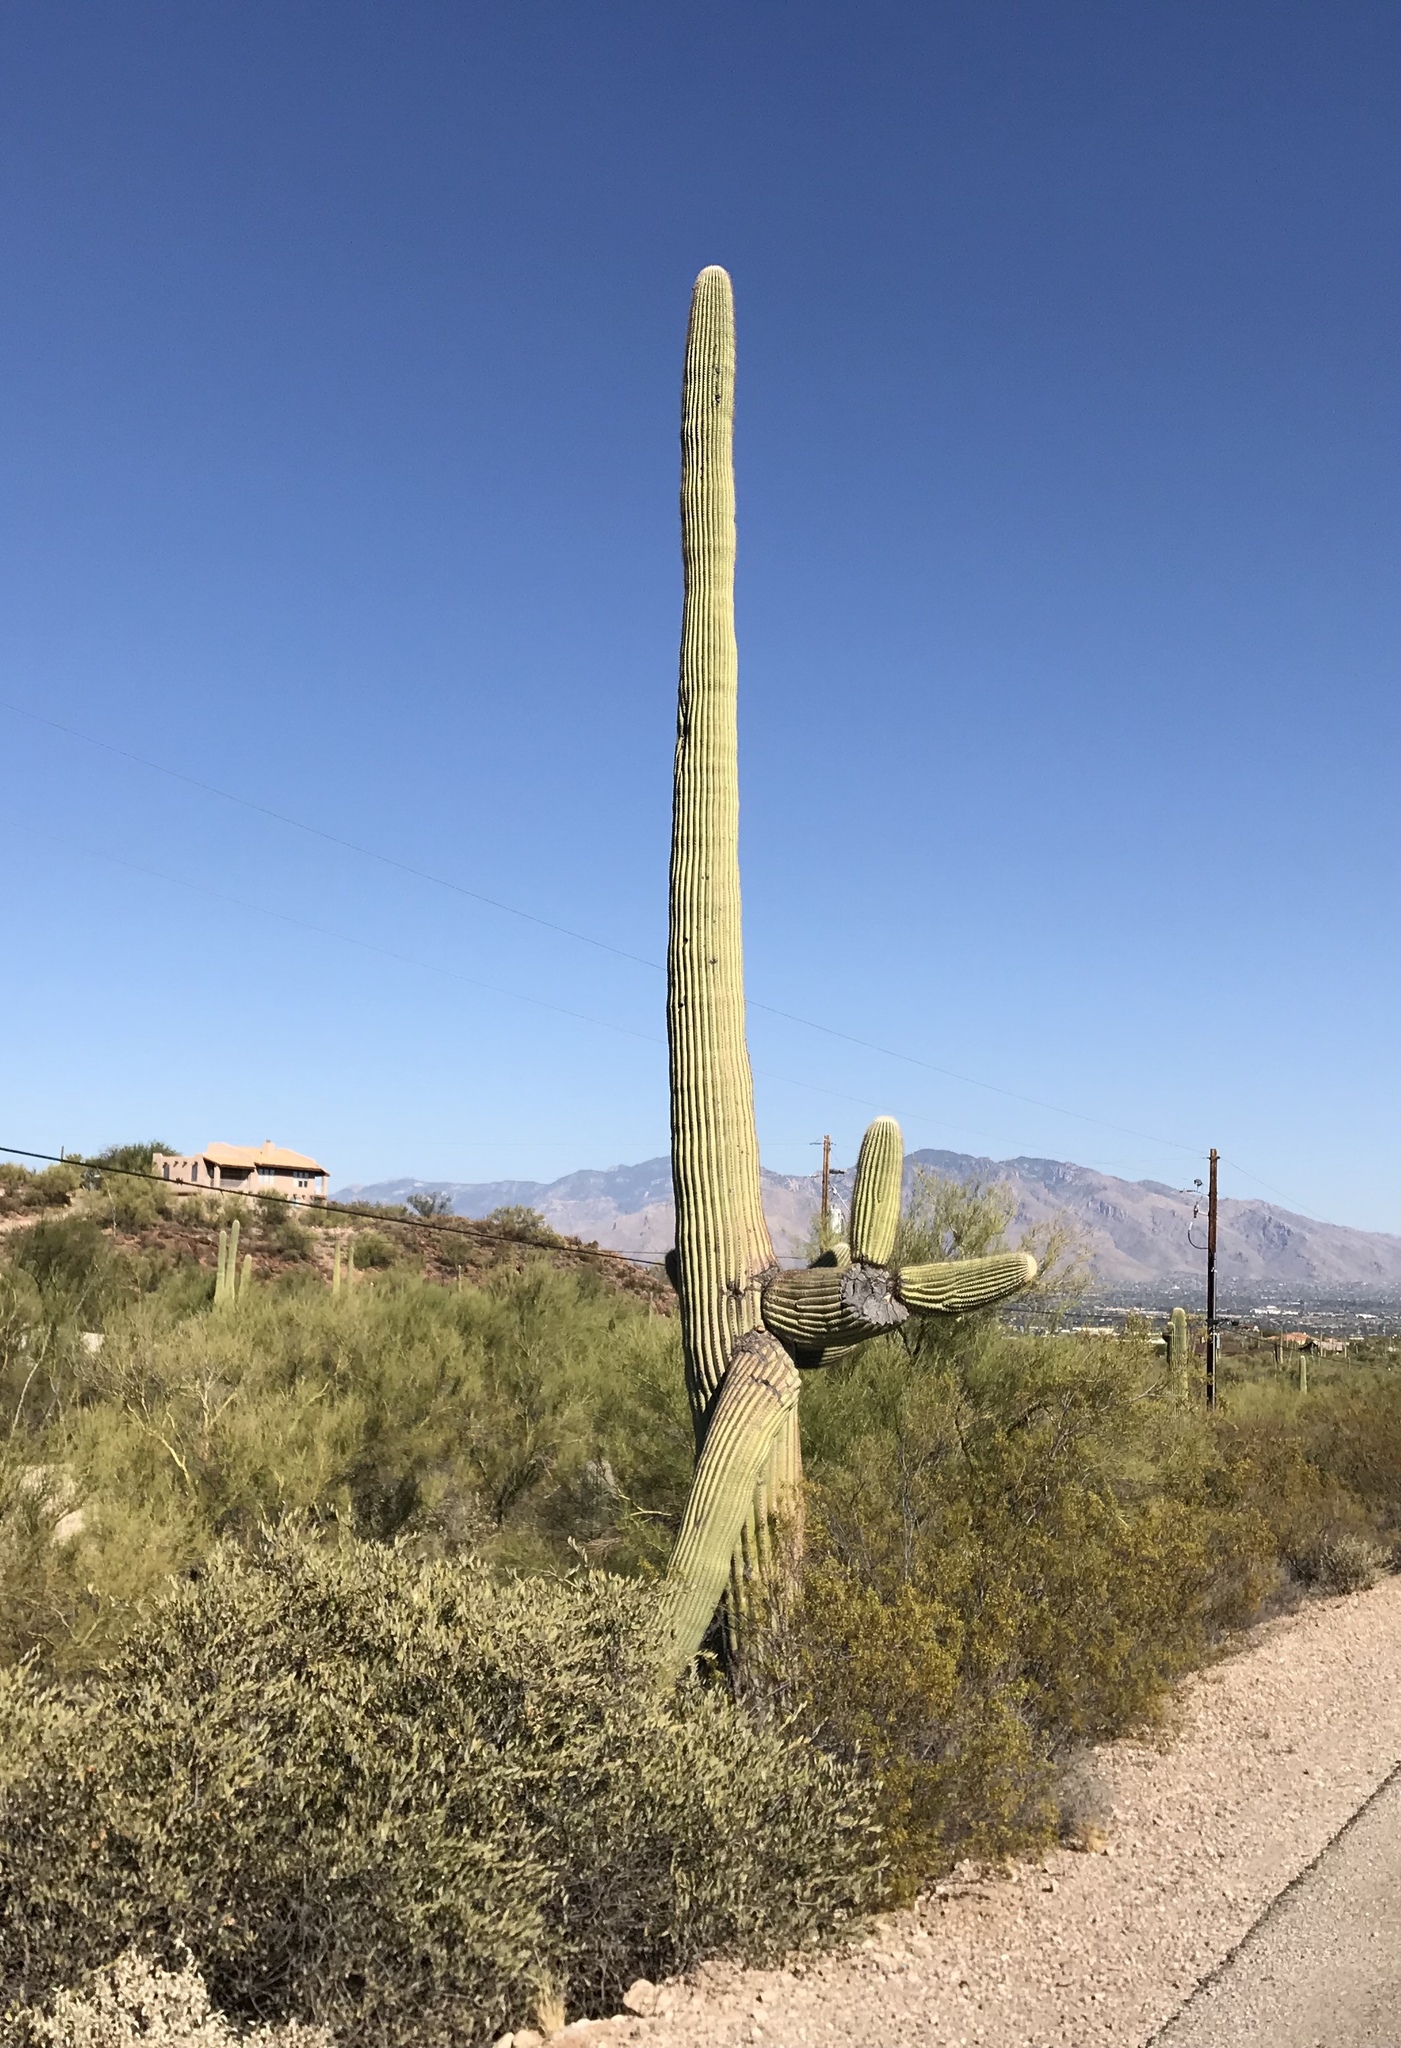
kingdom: Plantae
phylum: Tracheophyta
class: Magnoliopsida
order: Caryophyllales
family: Cactaceae
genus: Carnegiea
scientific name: Carnegiea gigantea
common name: Saguaro
